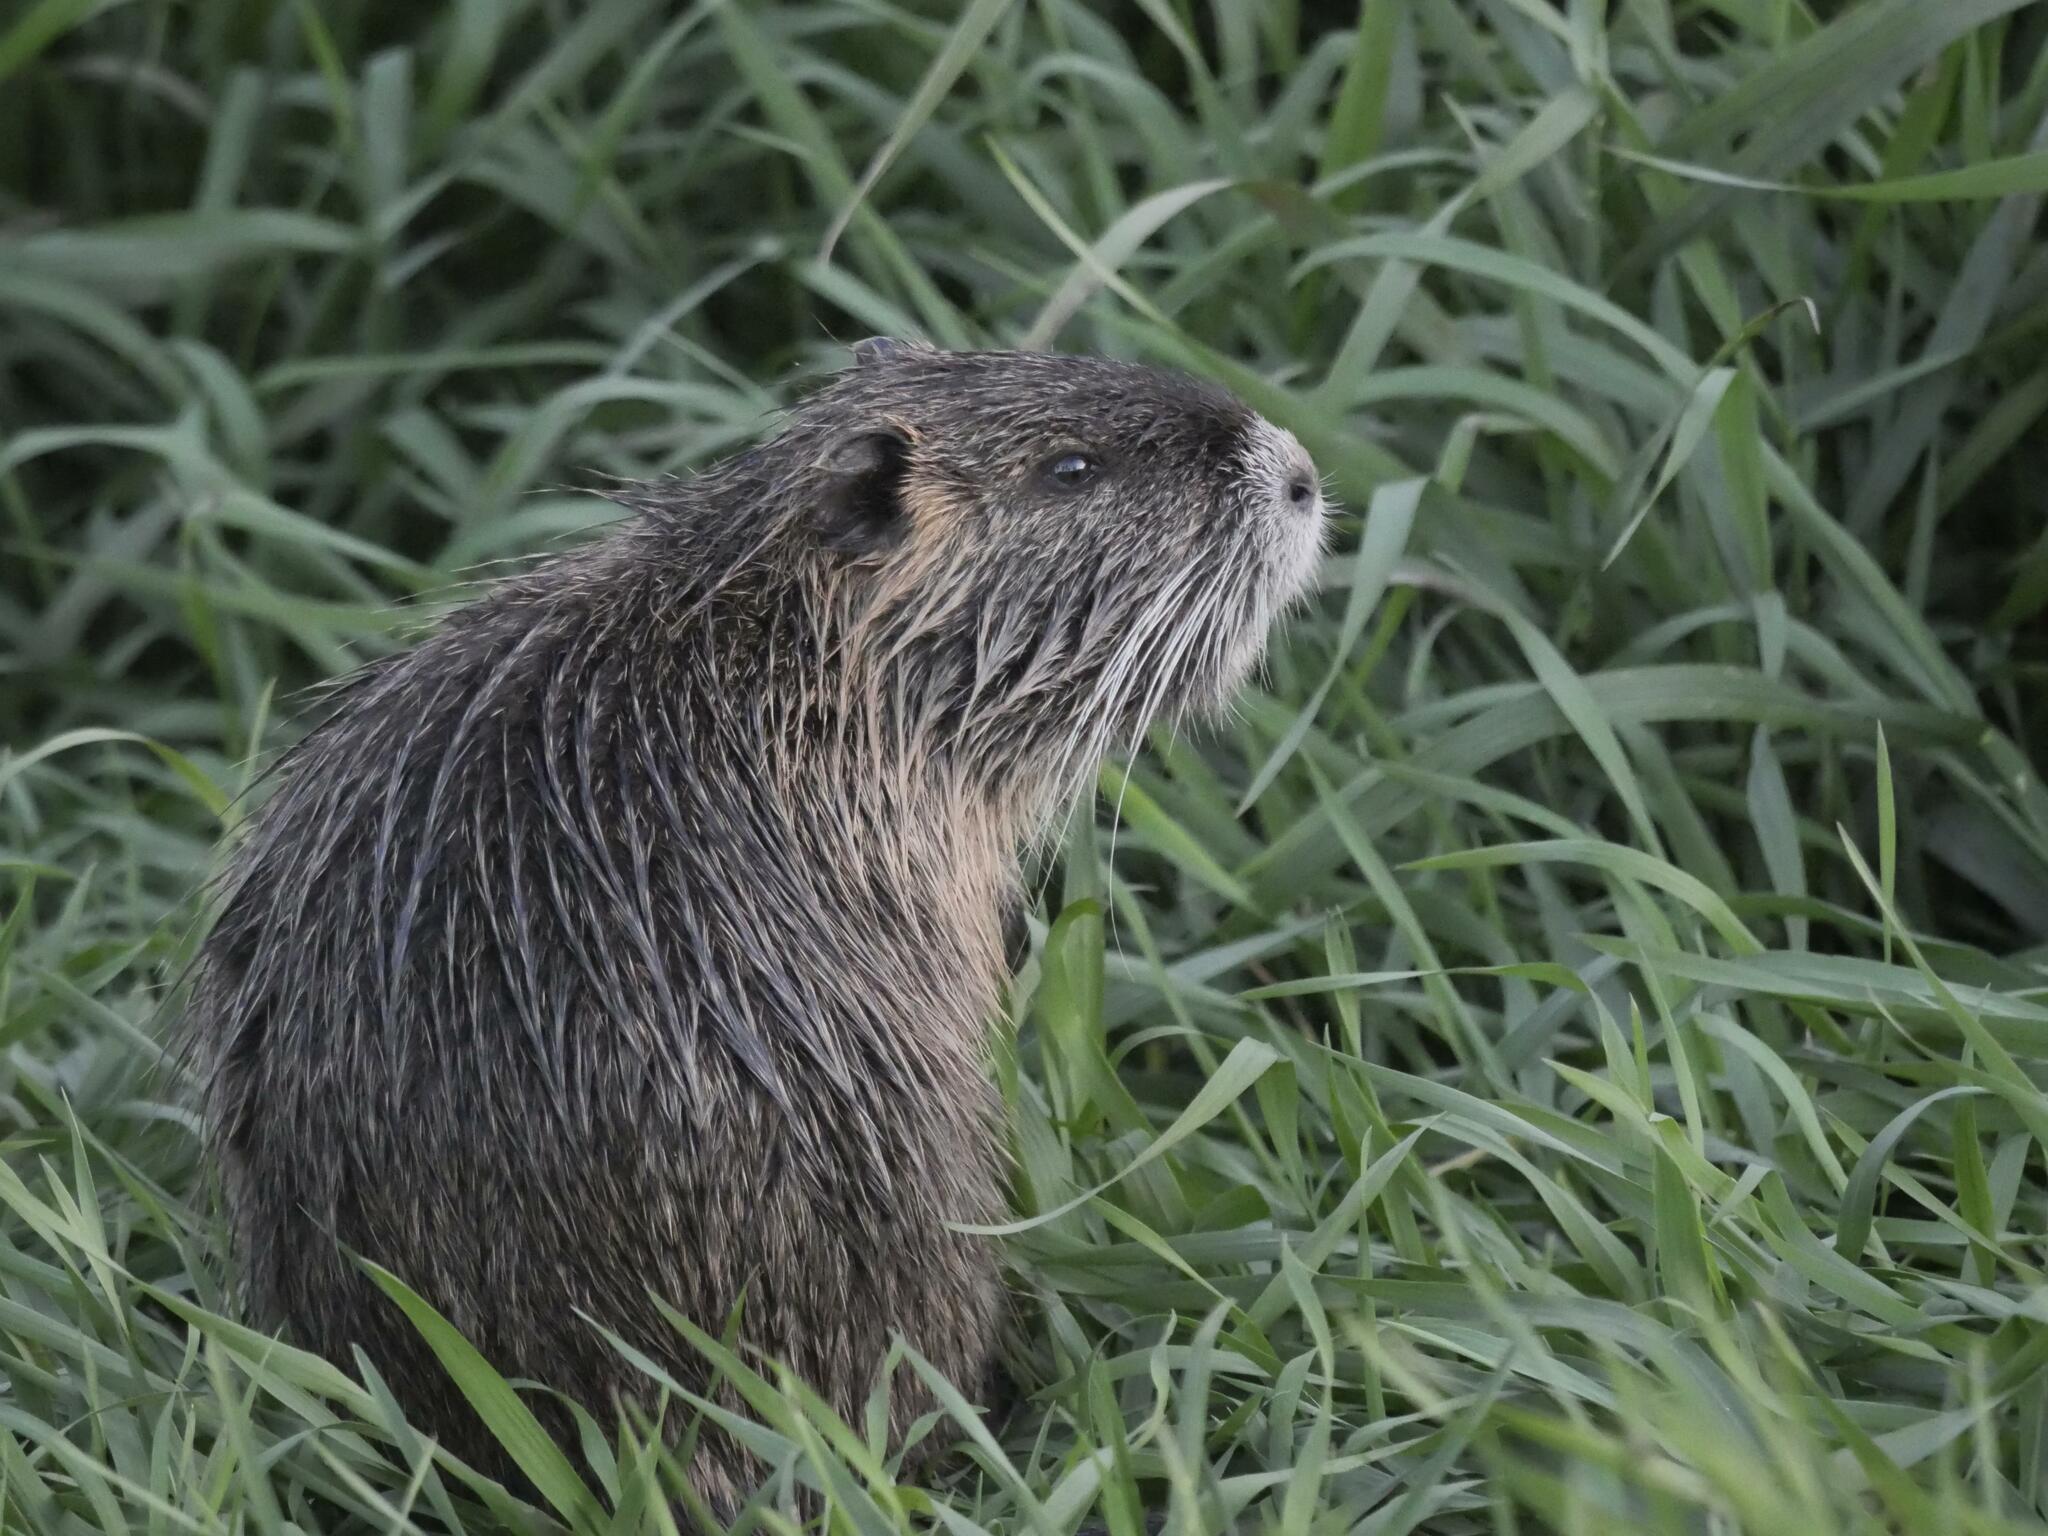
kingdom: Animalia
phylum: Chordata
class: Mammalia
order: Rodentia
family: Myocastoridae
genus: Myocastor
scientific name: Myocastor coypus
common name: Coypu
